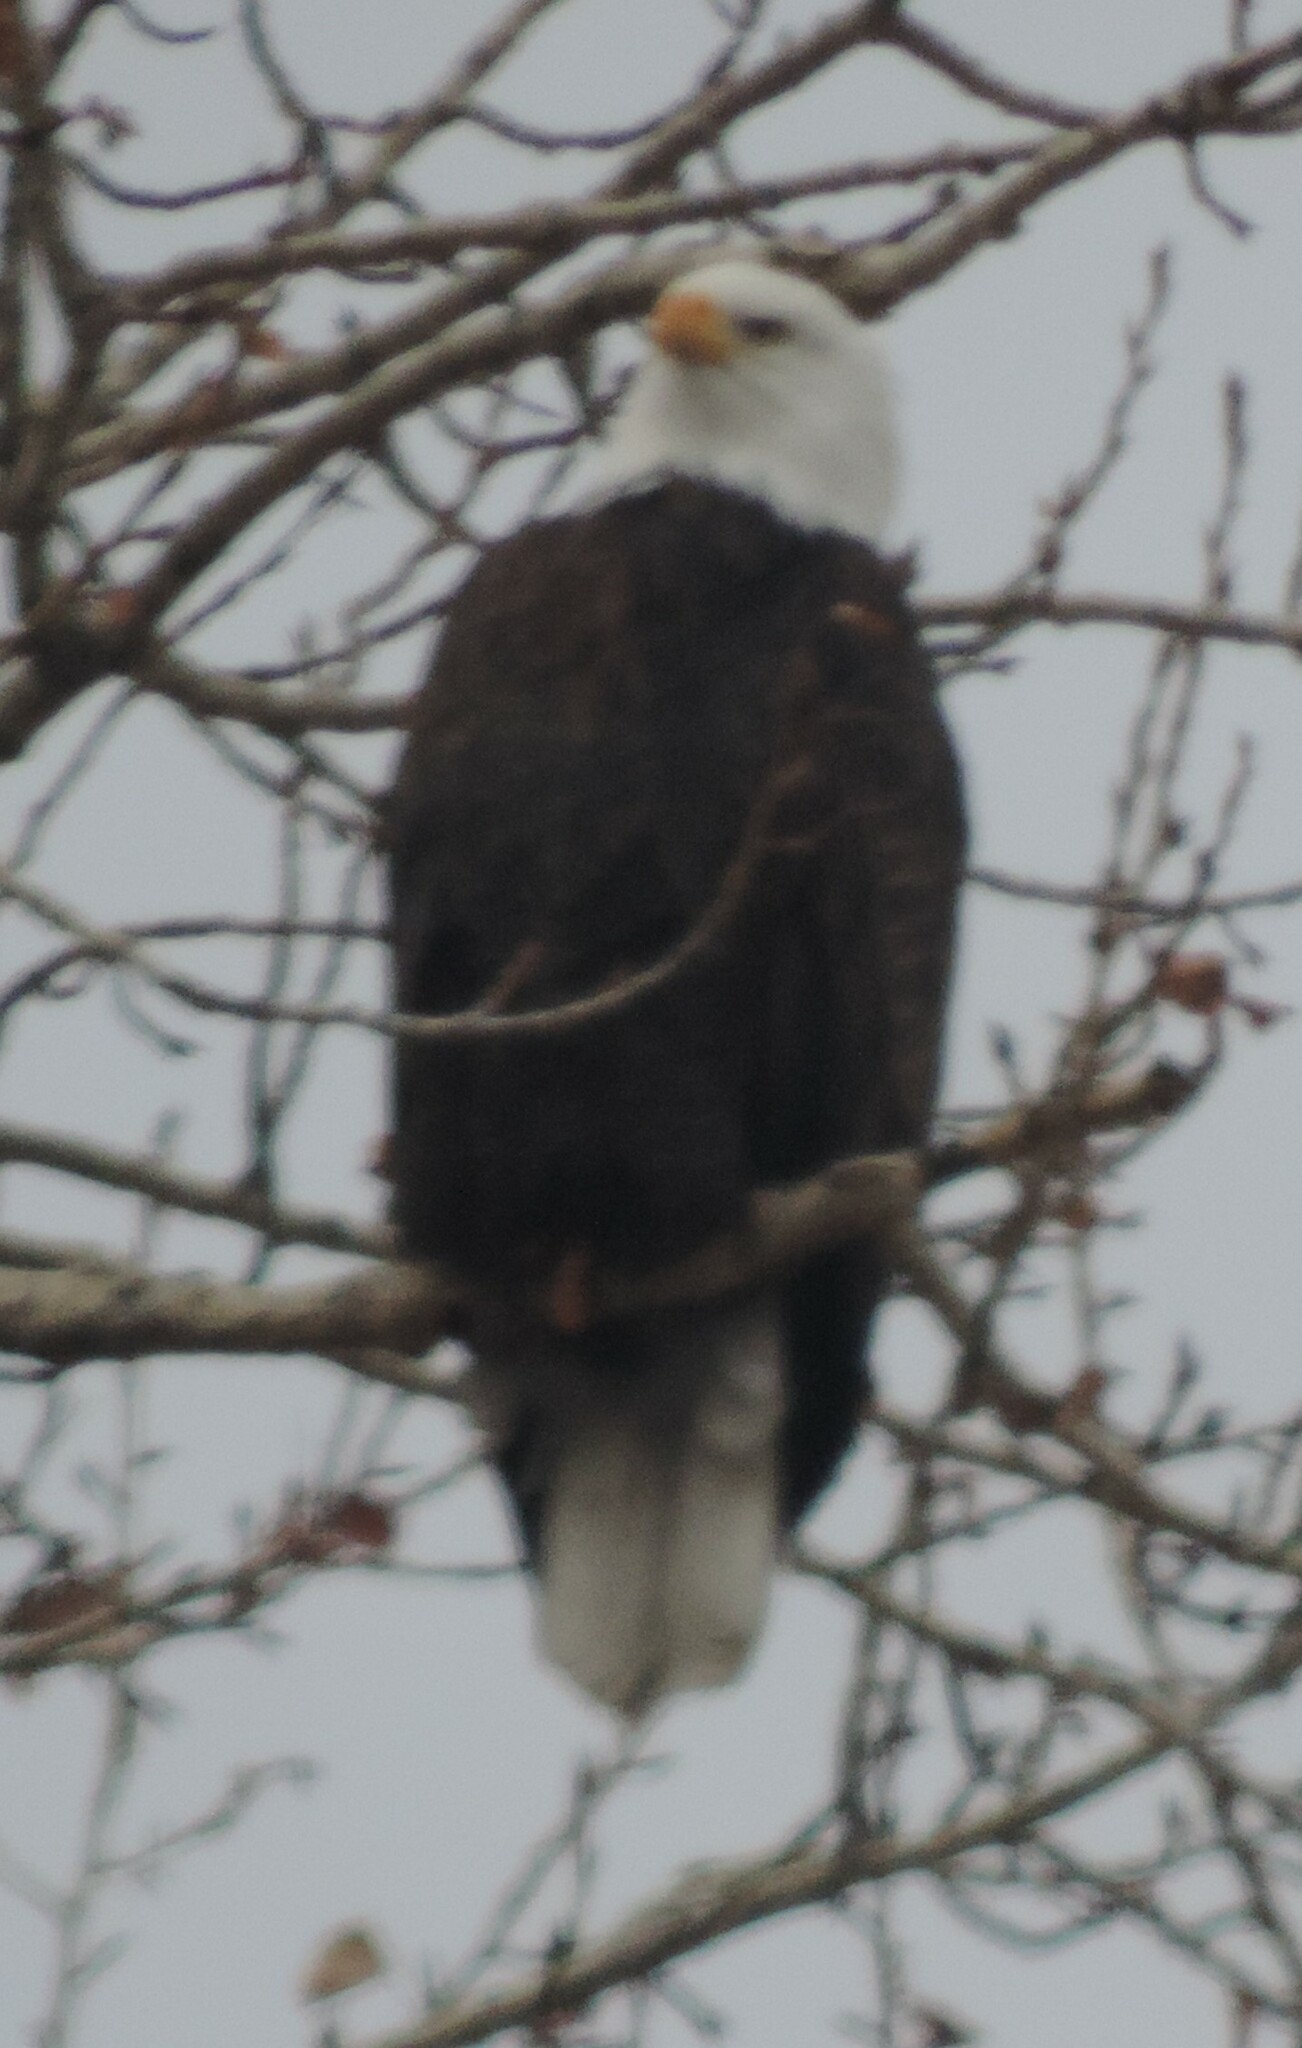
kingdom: Animalia
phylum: Chordata
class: Aves
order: Accipitriformes
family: Accipitridae
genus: Haliaeetus
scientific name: Haliaeetus leucocephalus
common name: Bald eagle
